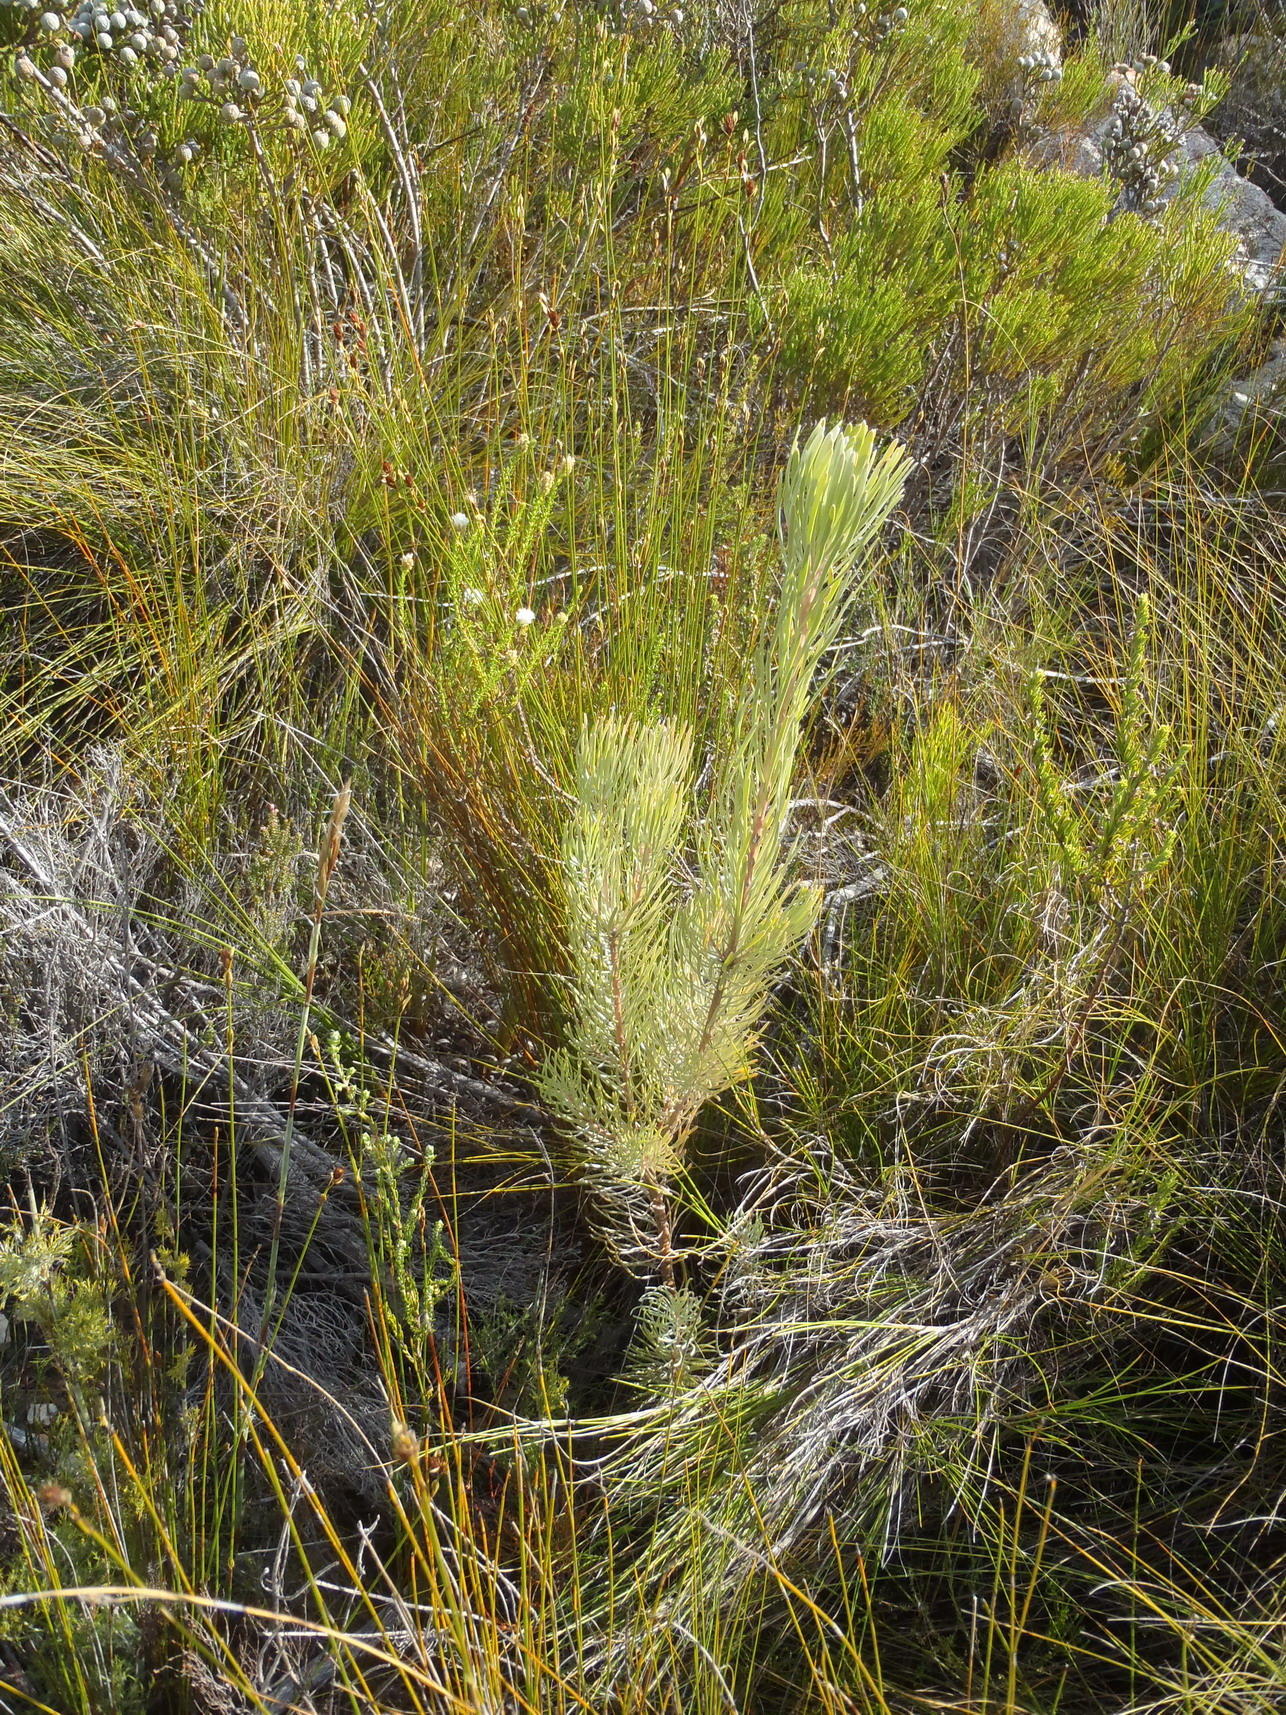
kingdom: Plantae
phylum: Tracheophyta
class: Magnoliopsida
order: Proteales
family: Proteaceae
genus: Leucadendron
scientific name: Leucadendron album
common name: Linear-leaf conebush
